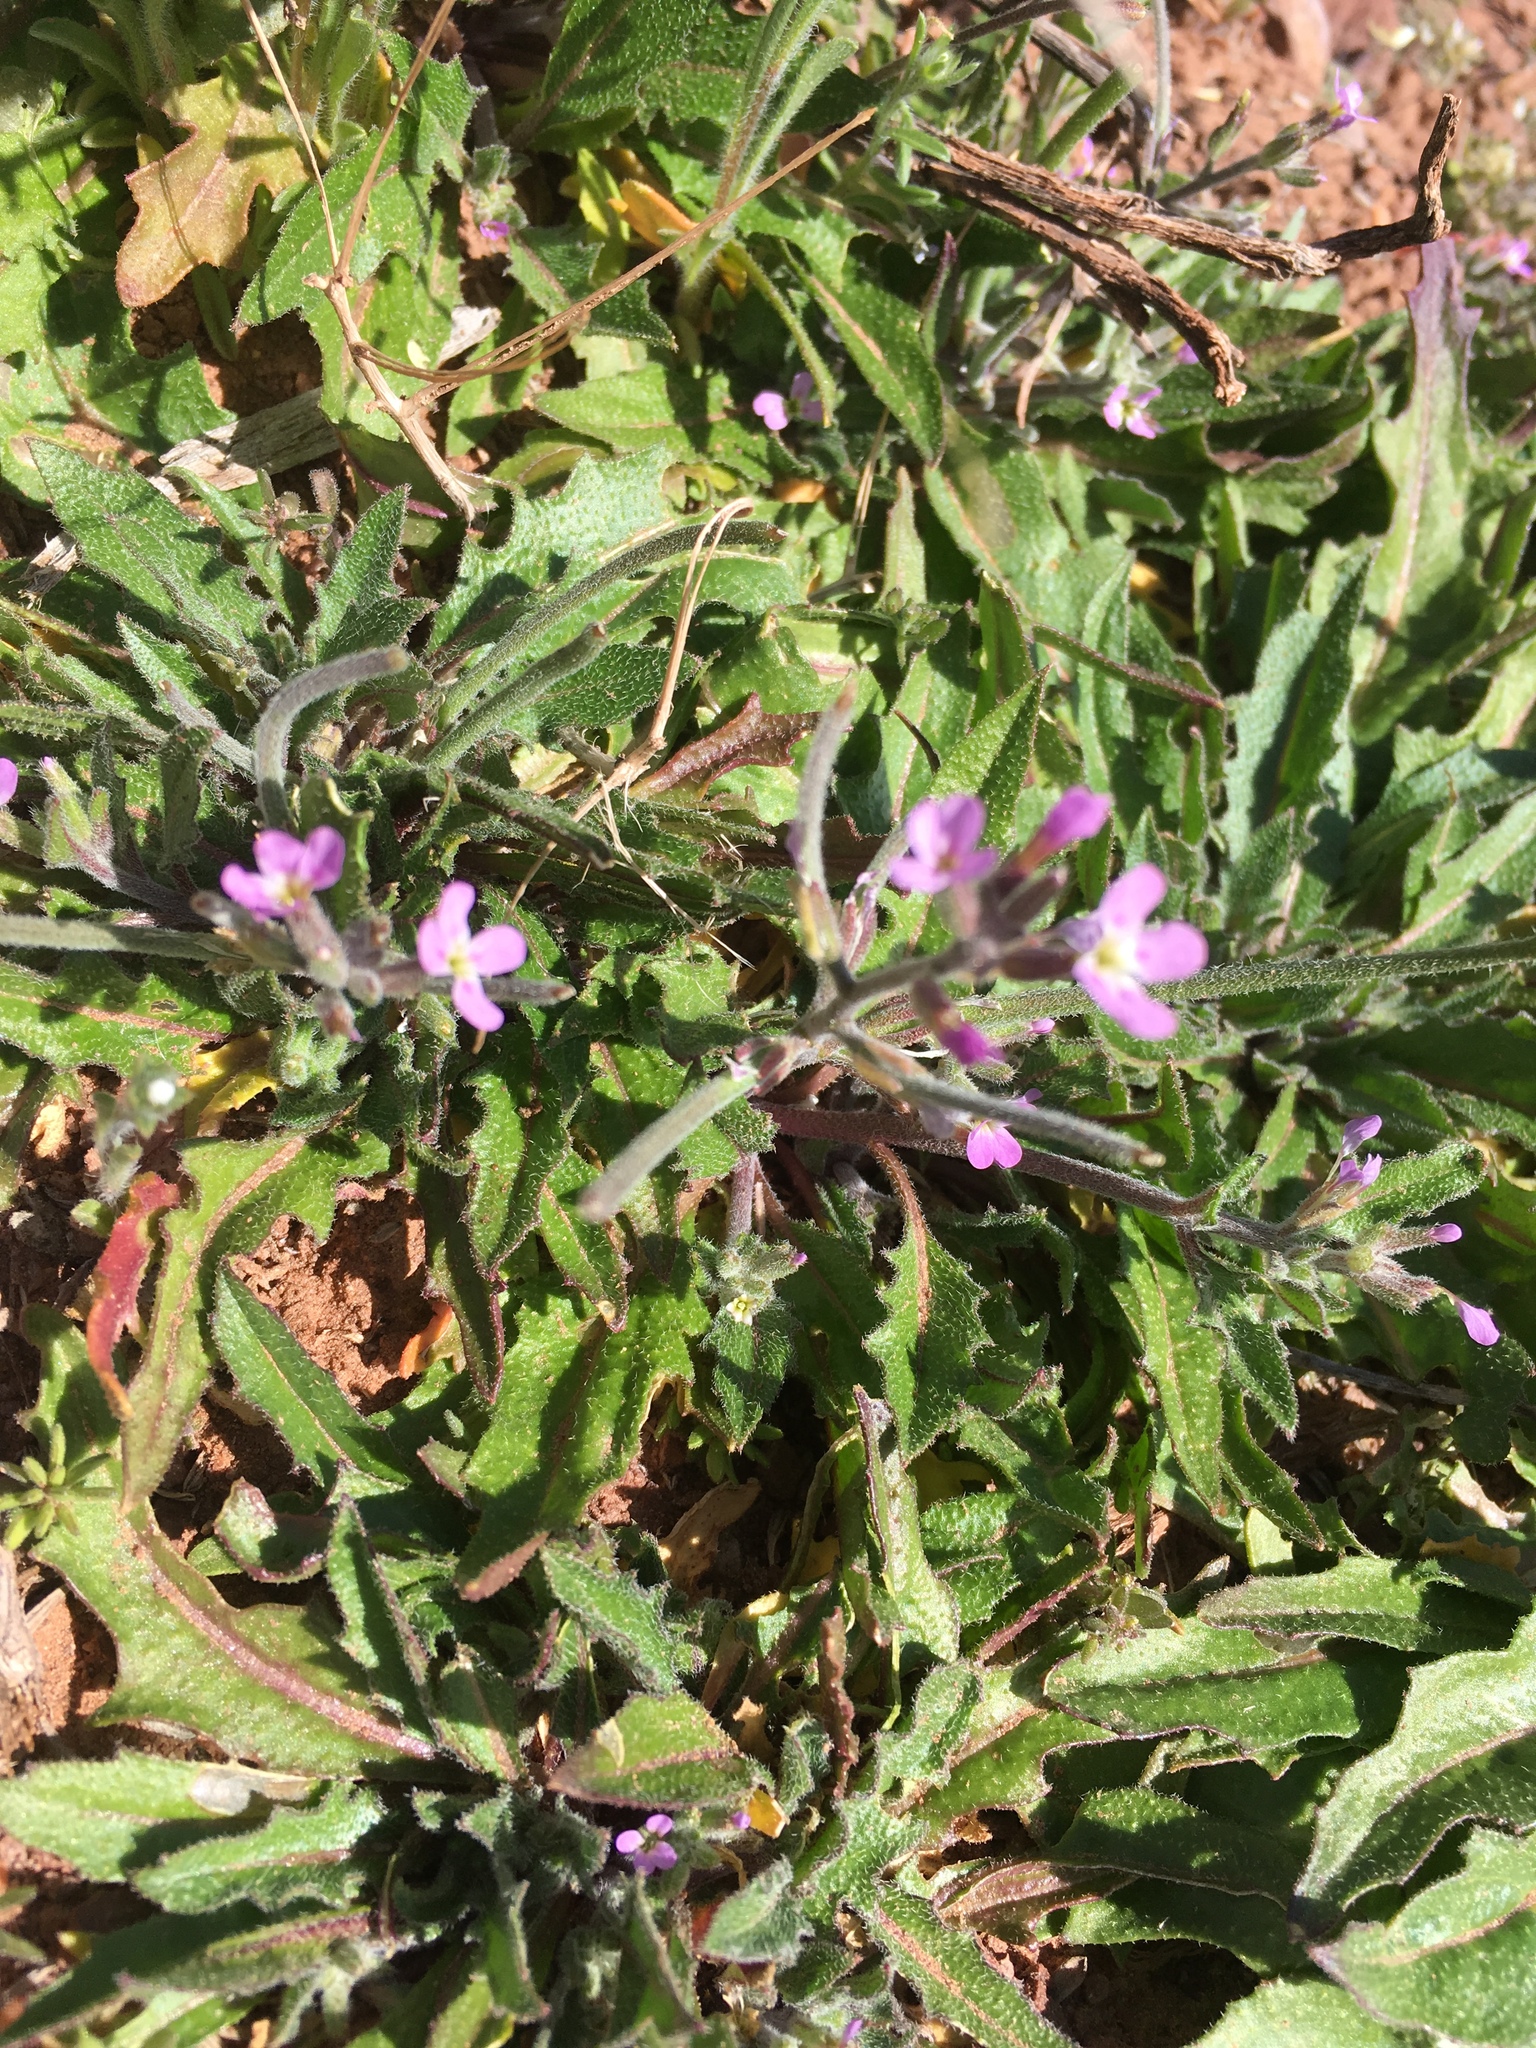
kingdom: Plantae
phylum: Tracheophyta
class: Magnoliopsida
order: Brassicales
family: Brassicaceae
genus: Strigosella
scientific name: Strigosella africana
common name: African mustard
